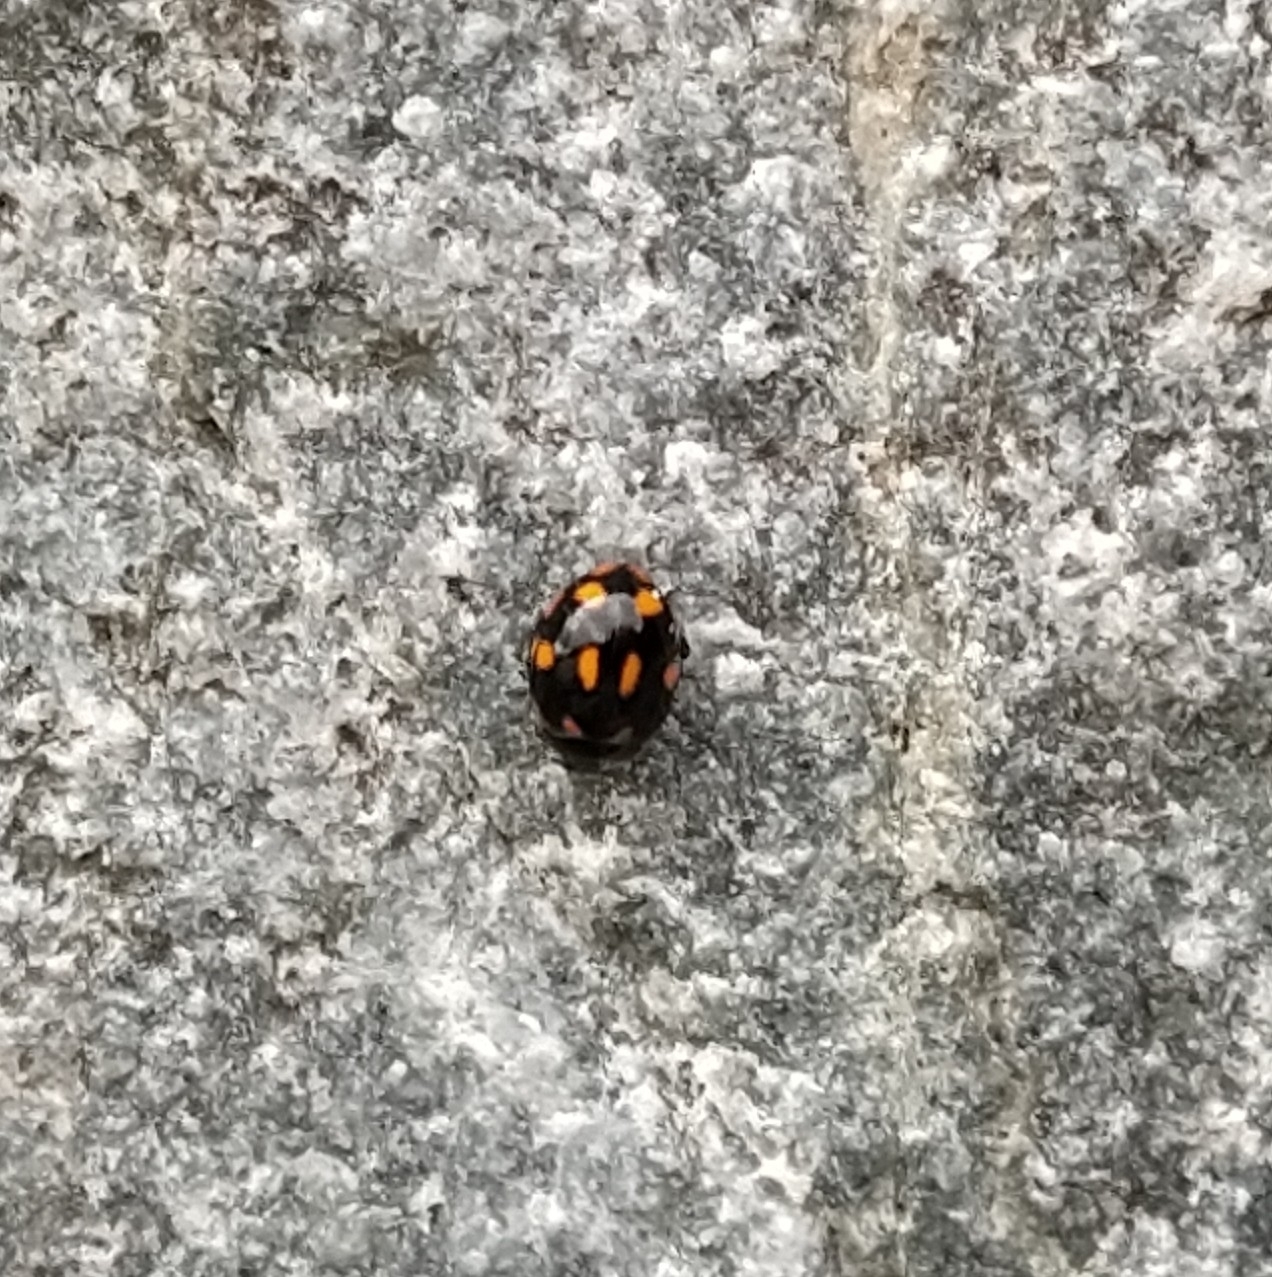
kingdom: Animalia
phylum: Arthropoda
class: Insecta
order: Coleoptera
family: Coccinellidae
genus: Coccinella
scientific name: Coccinella leonina
